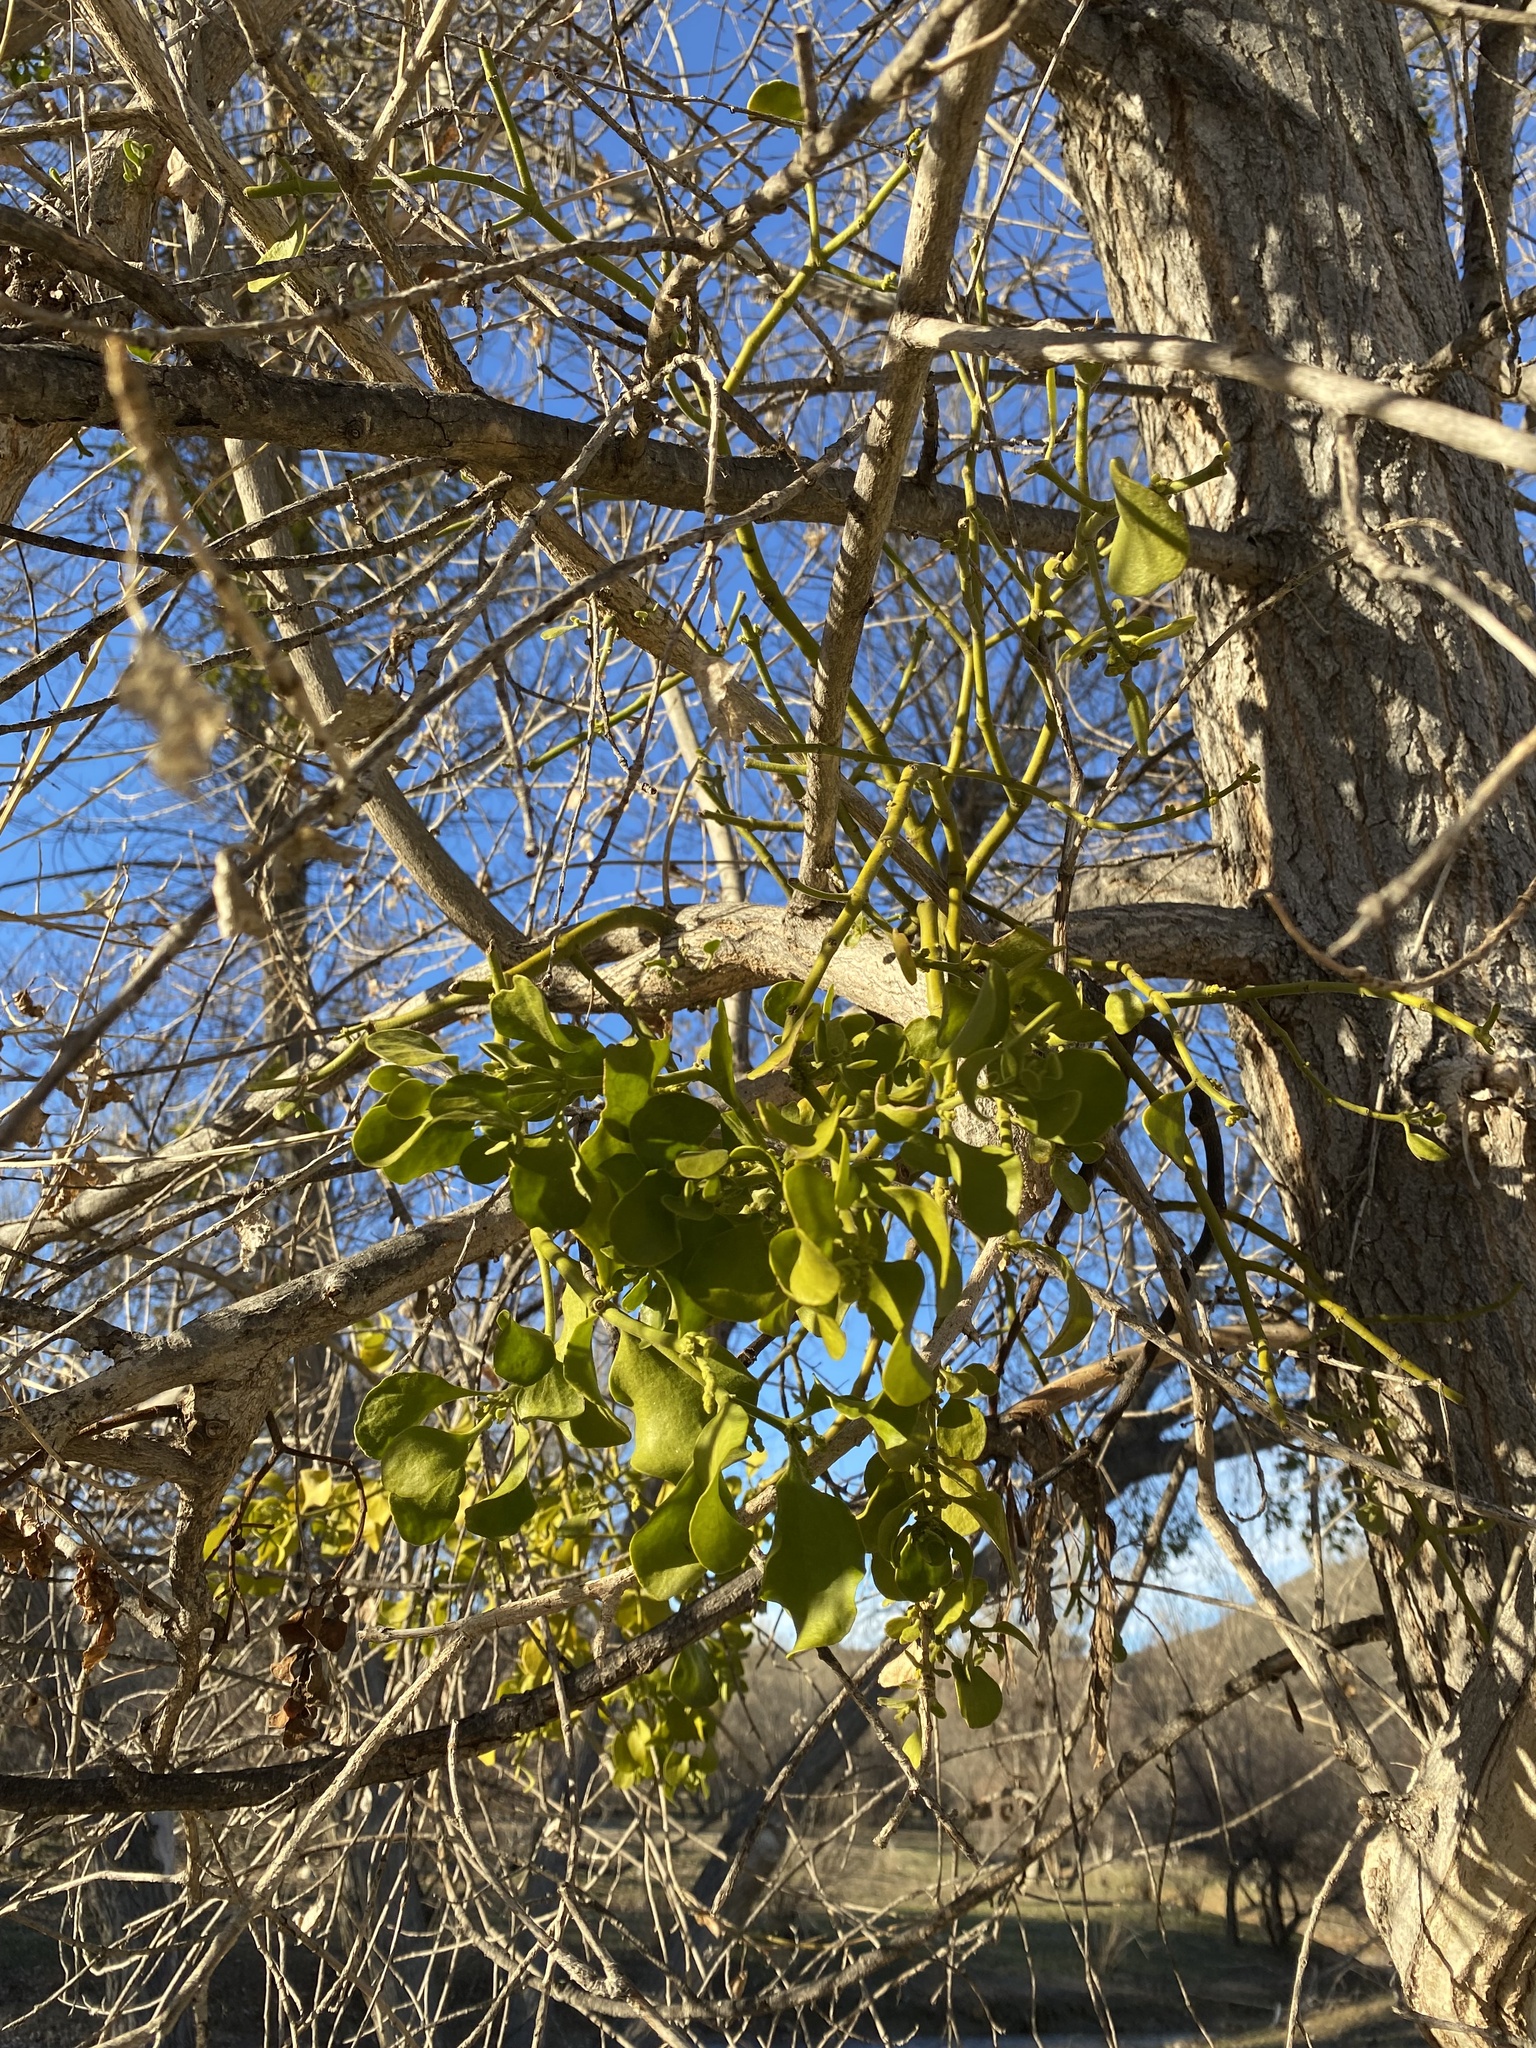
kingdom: Plantae
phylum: Tracheophyta
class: Magnoliopsida
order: Santalales
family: Viscaceae
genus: Phoradendron
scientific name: Phoradendron
